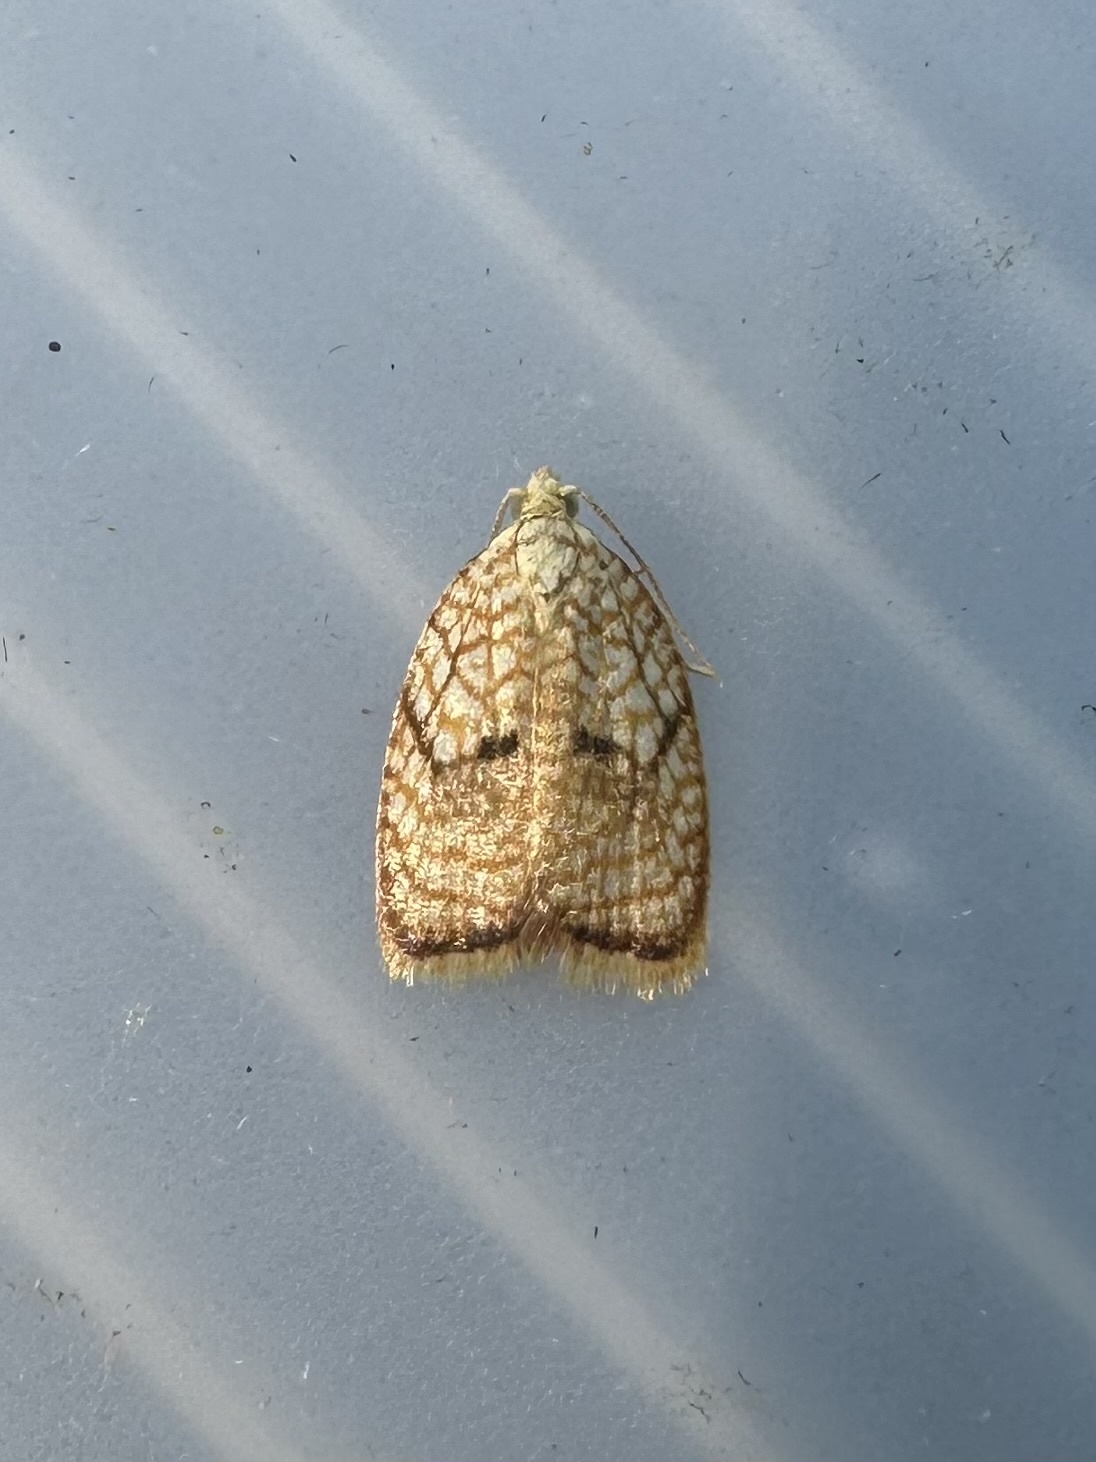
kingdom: Animalia
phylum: Arthropoda
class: Insecta
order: Lepidoptera
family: Tortricidae
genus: Acleris
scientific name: Acleris forsskaleana
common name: Maple button
